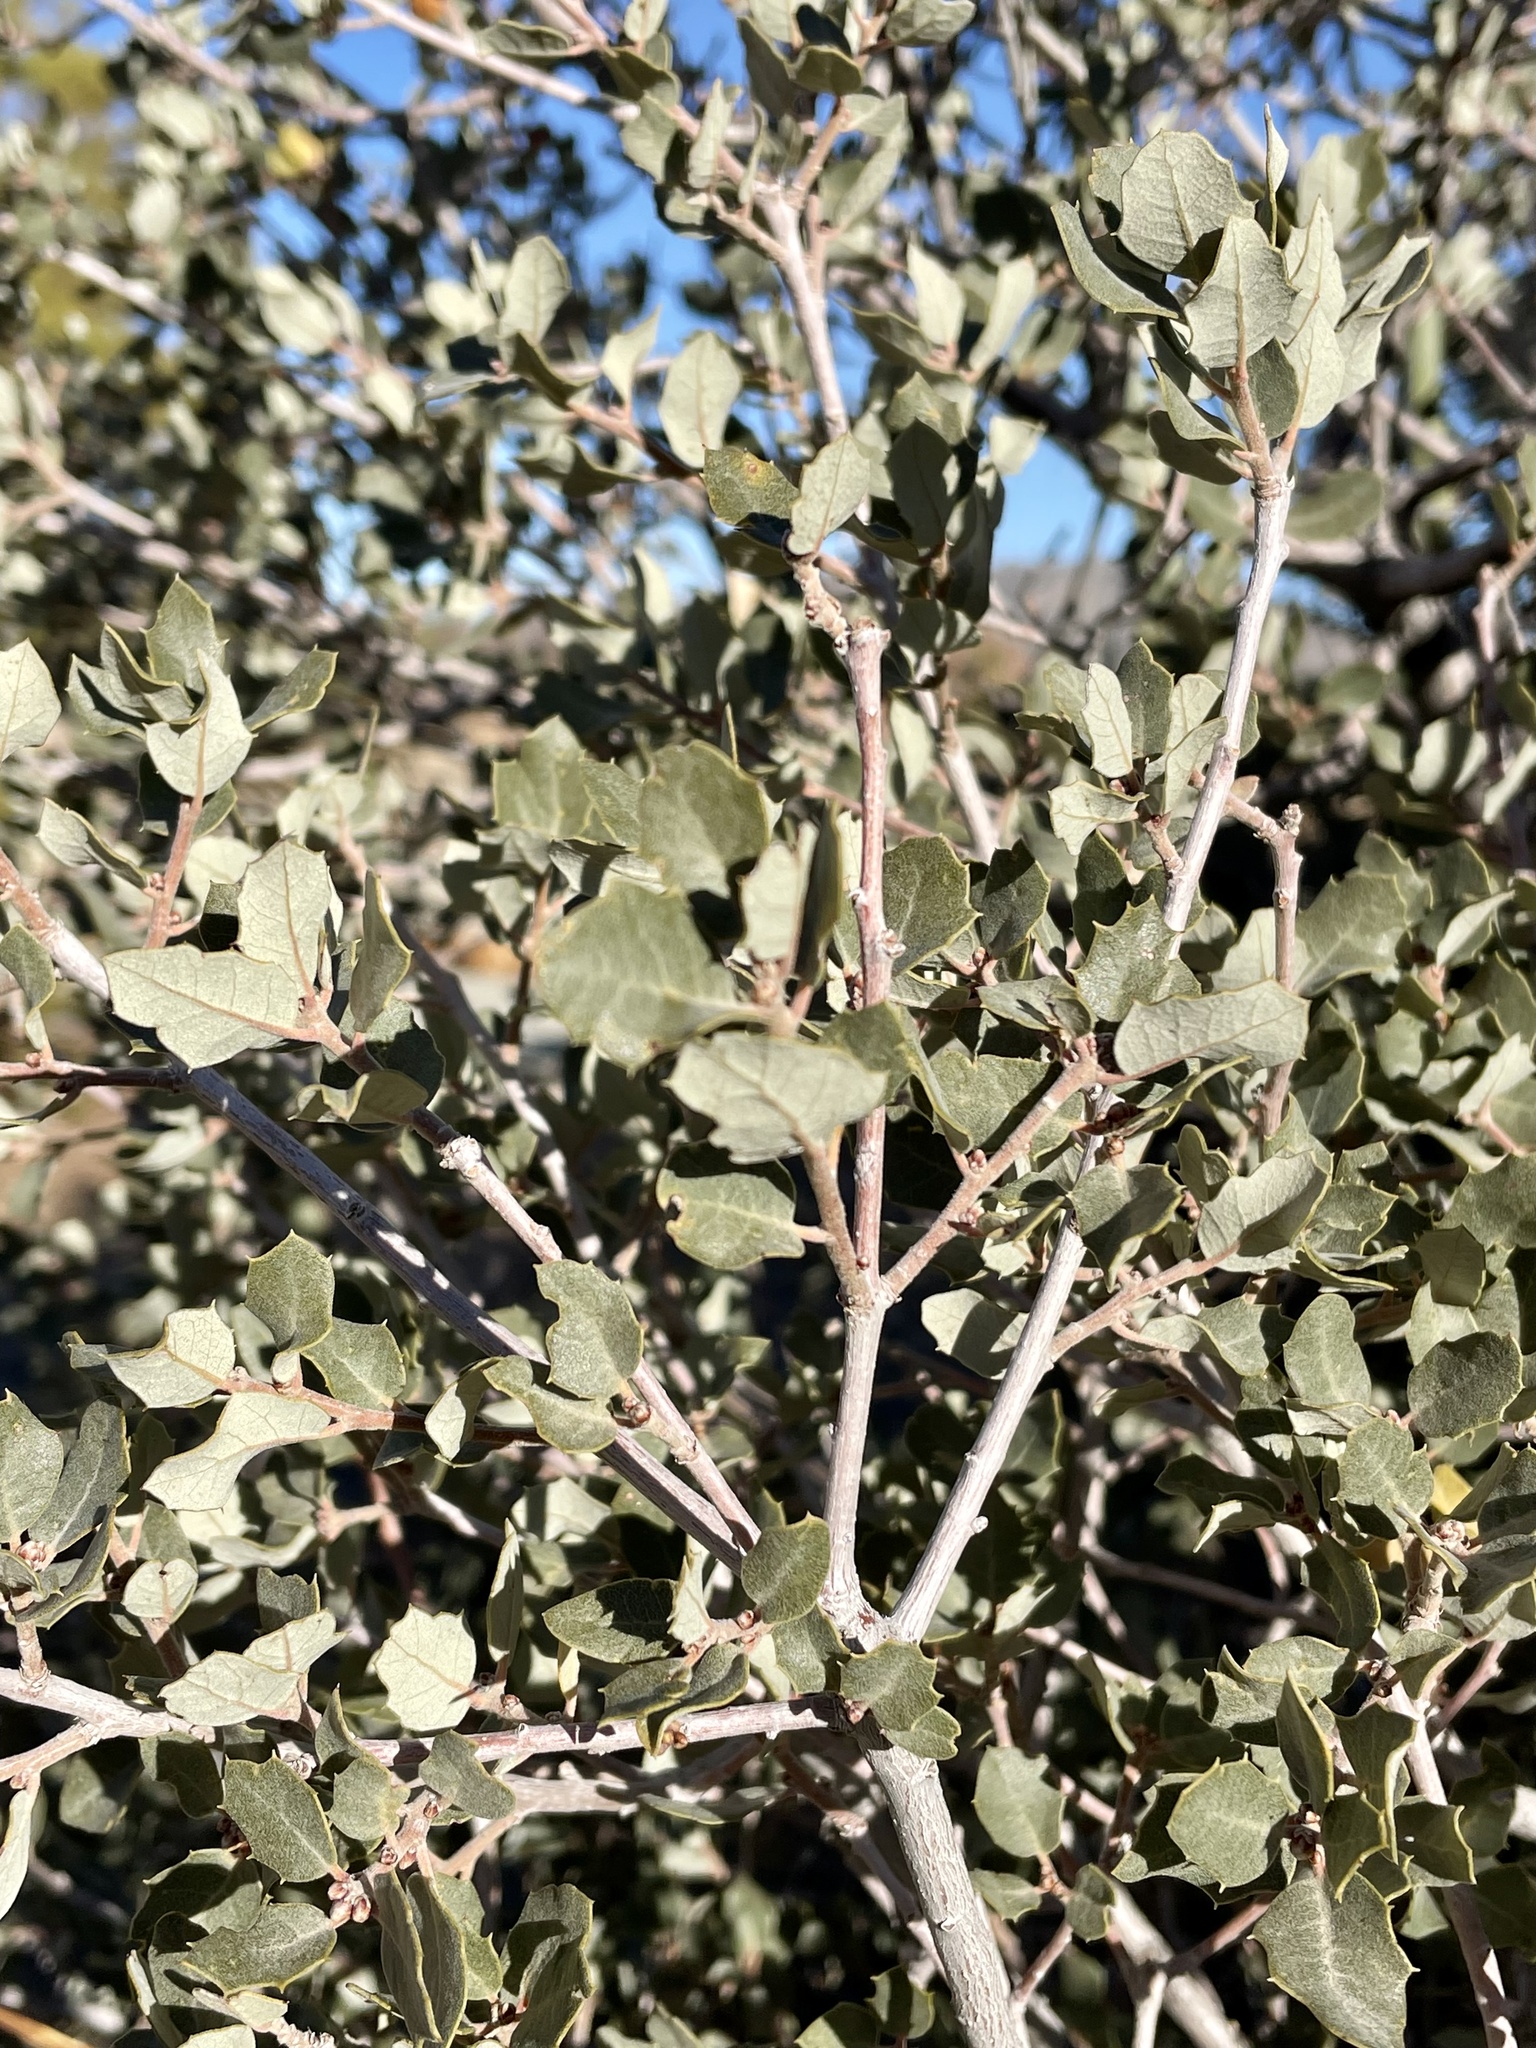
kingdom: Plantae
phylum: Tracheophyta
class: Magnoliopsida
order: Fagales
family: Fagaceae
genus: Quercus
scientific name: Quercus cornelius-mulleri
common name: Muller oak
